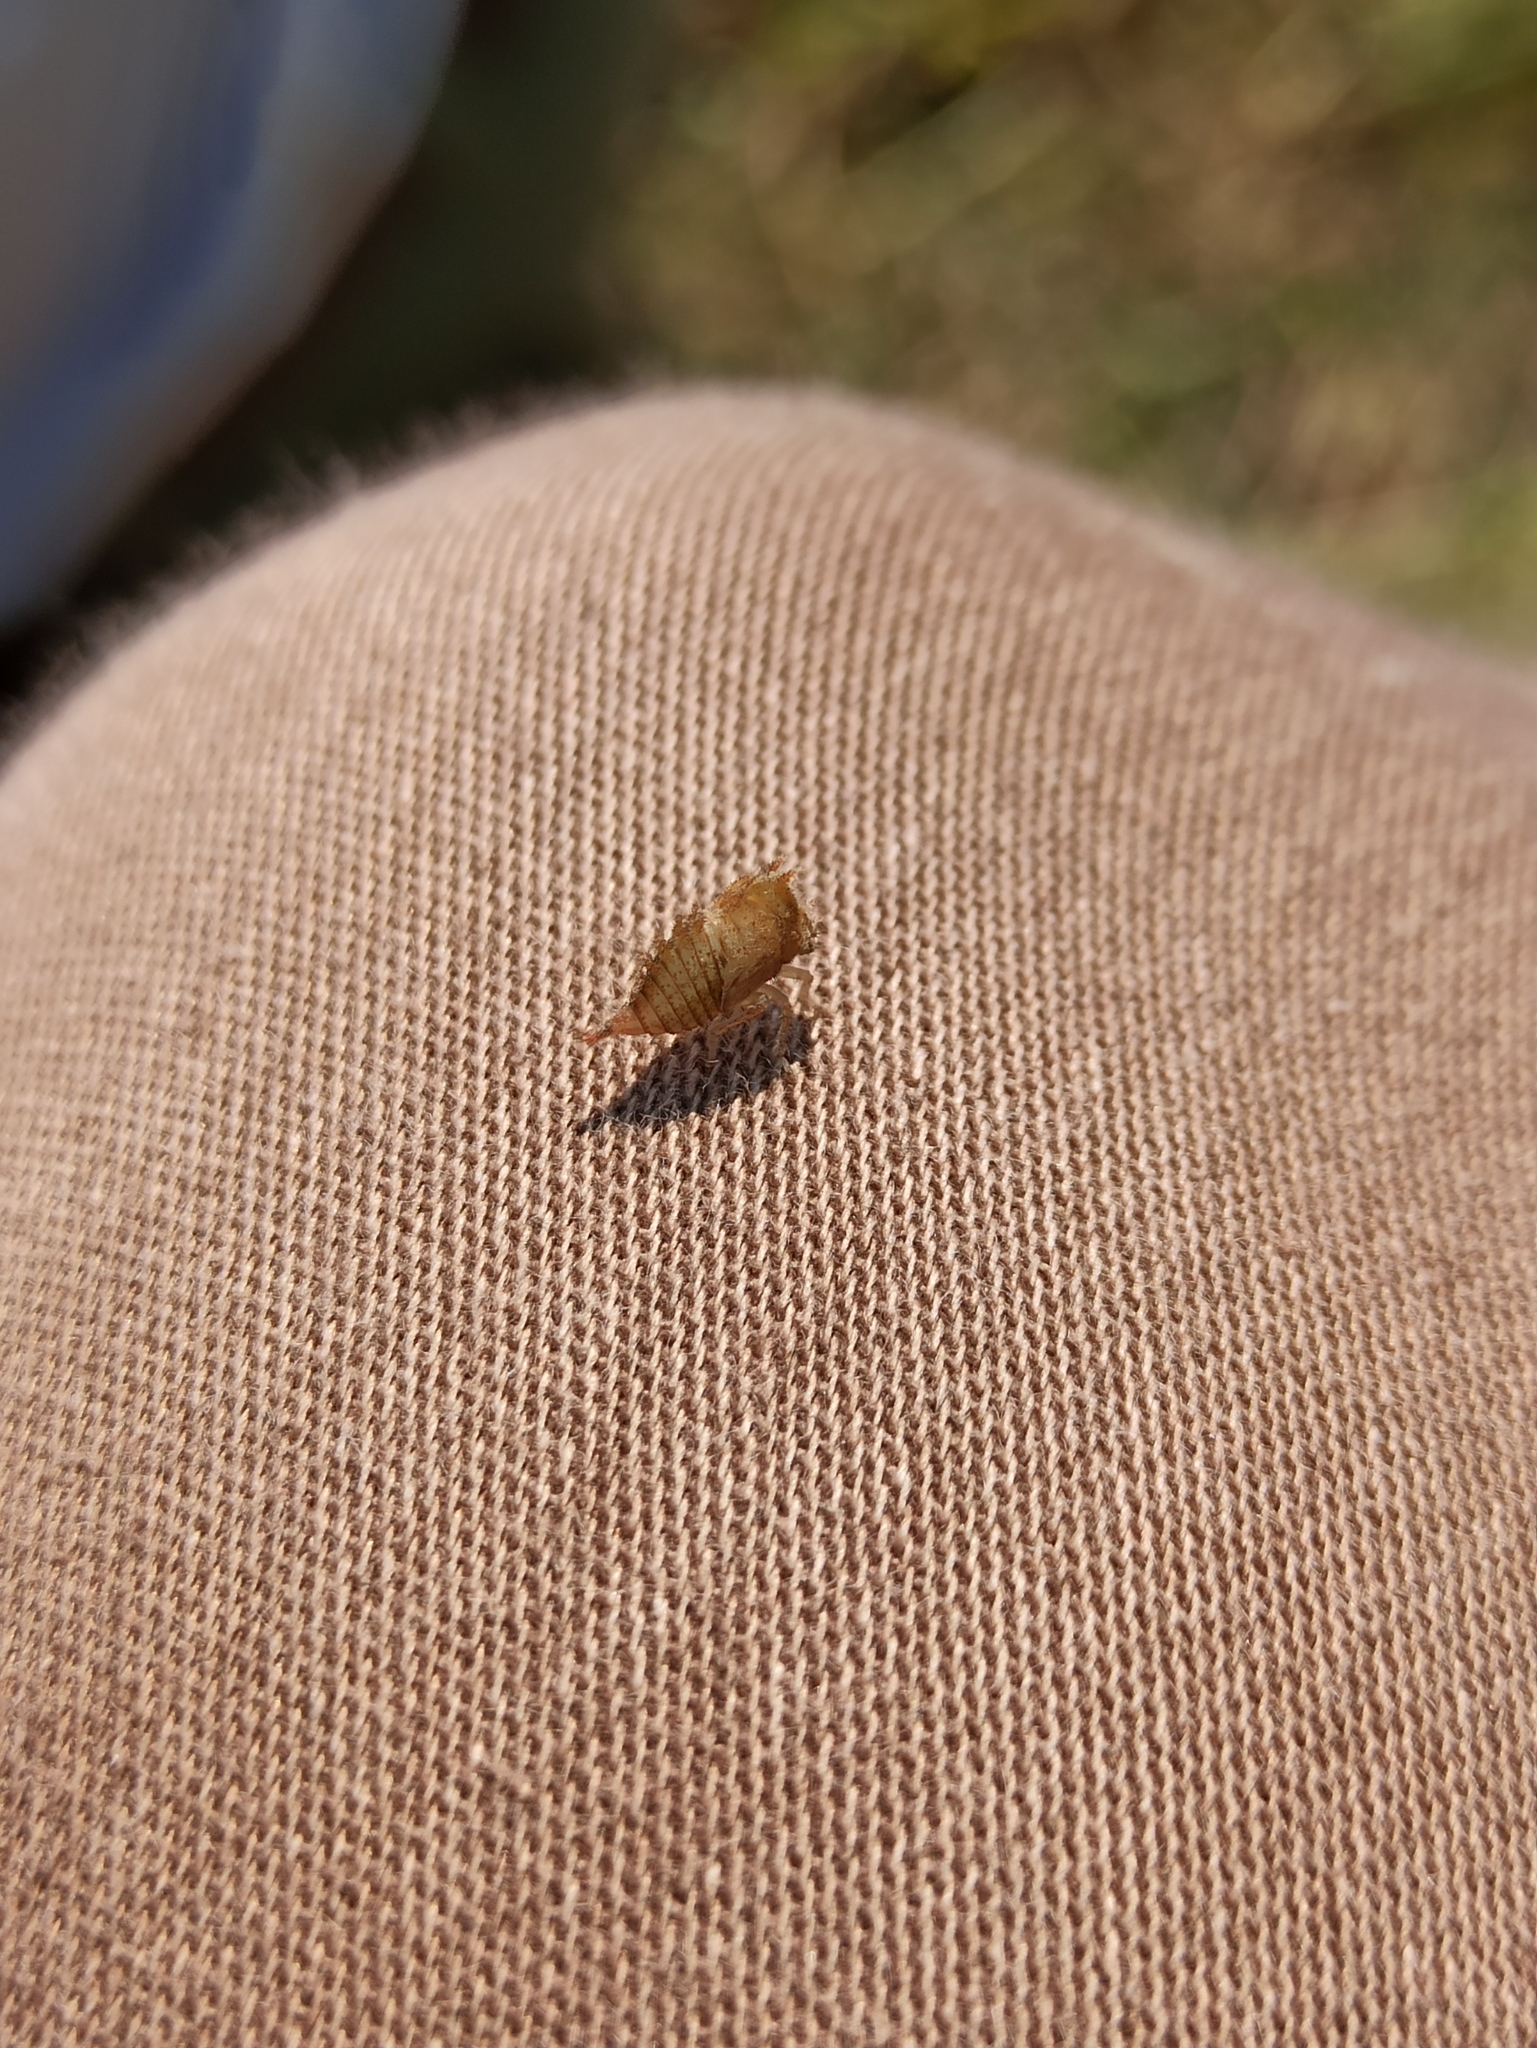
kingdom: Animalia
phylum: Arthropoda
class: Insecta
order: Hemiptera
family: Membracidae
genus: Stictocephala
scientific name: Stictocephala bisonia
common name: American buffalo treehopper
